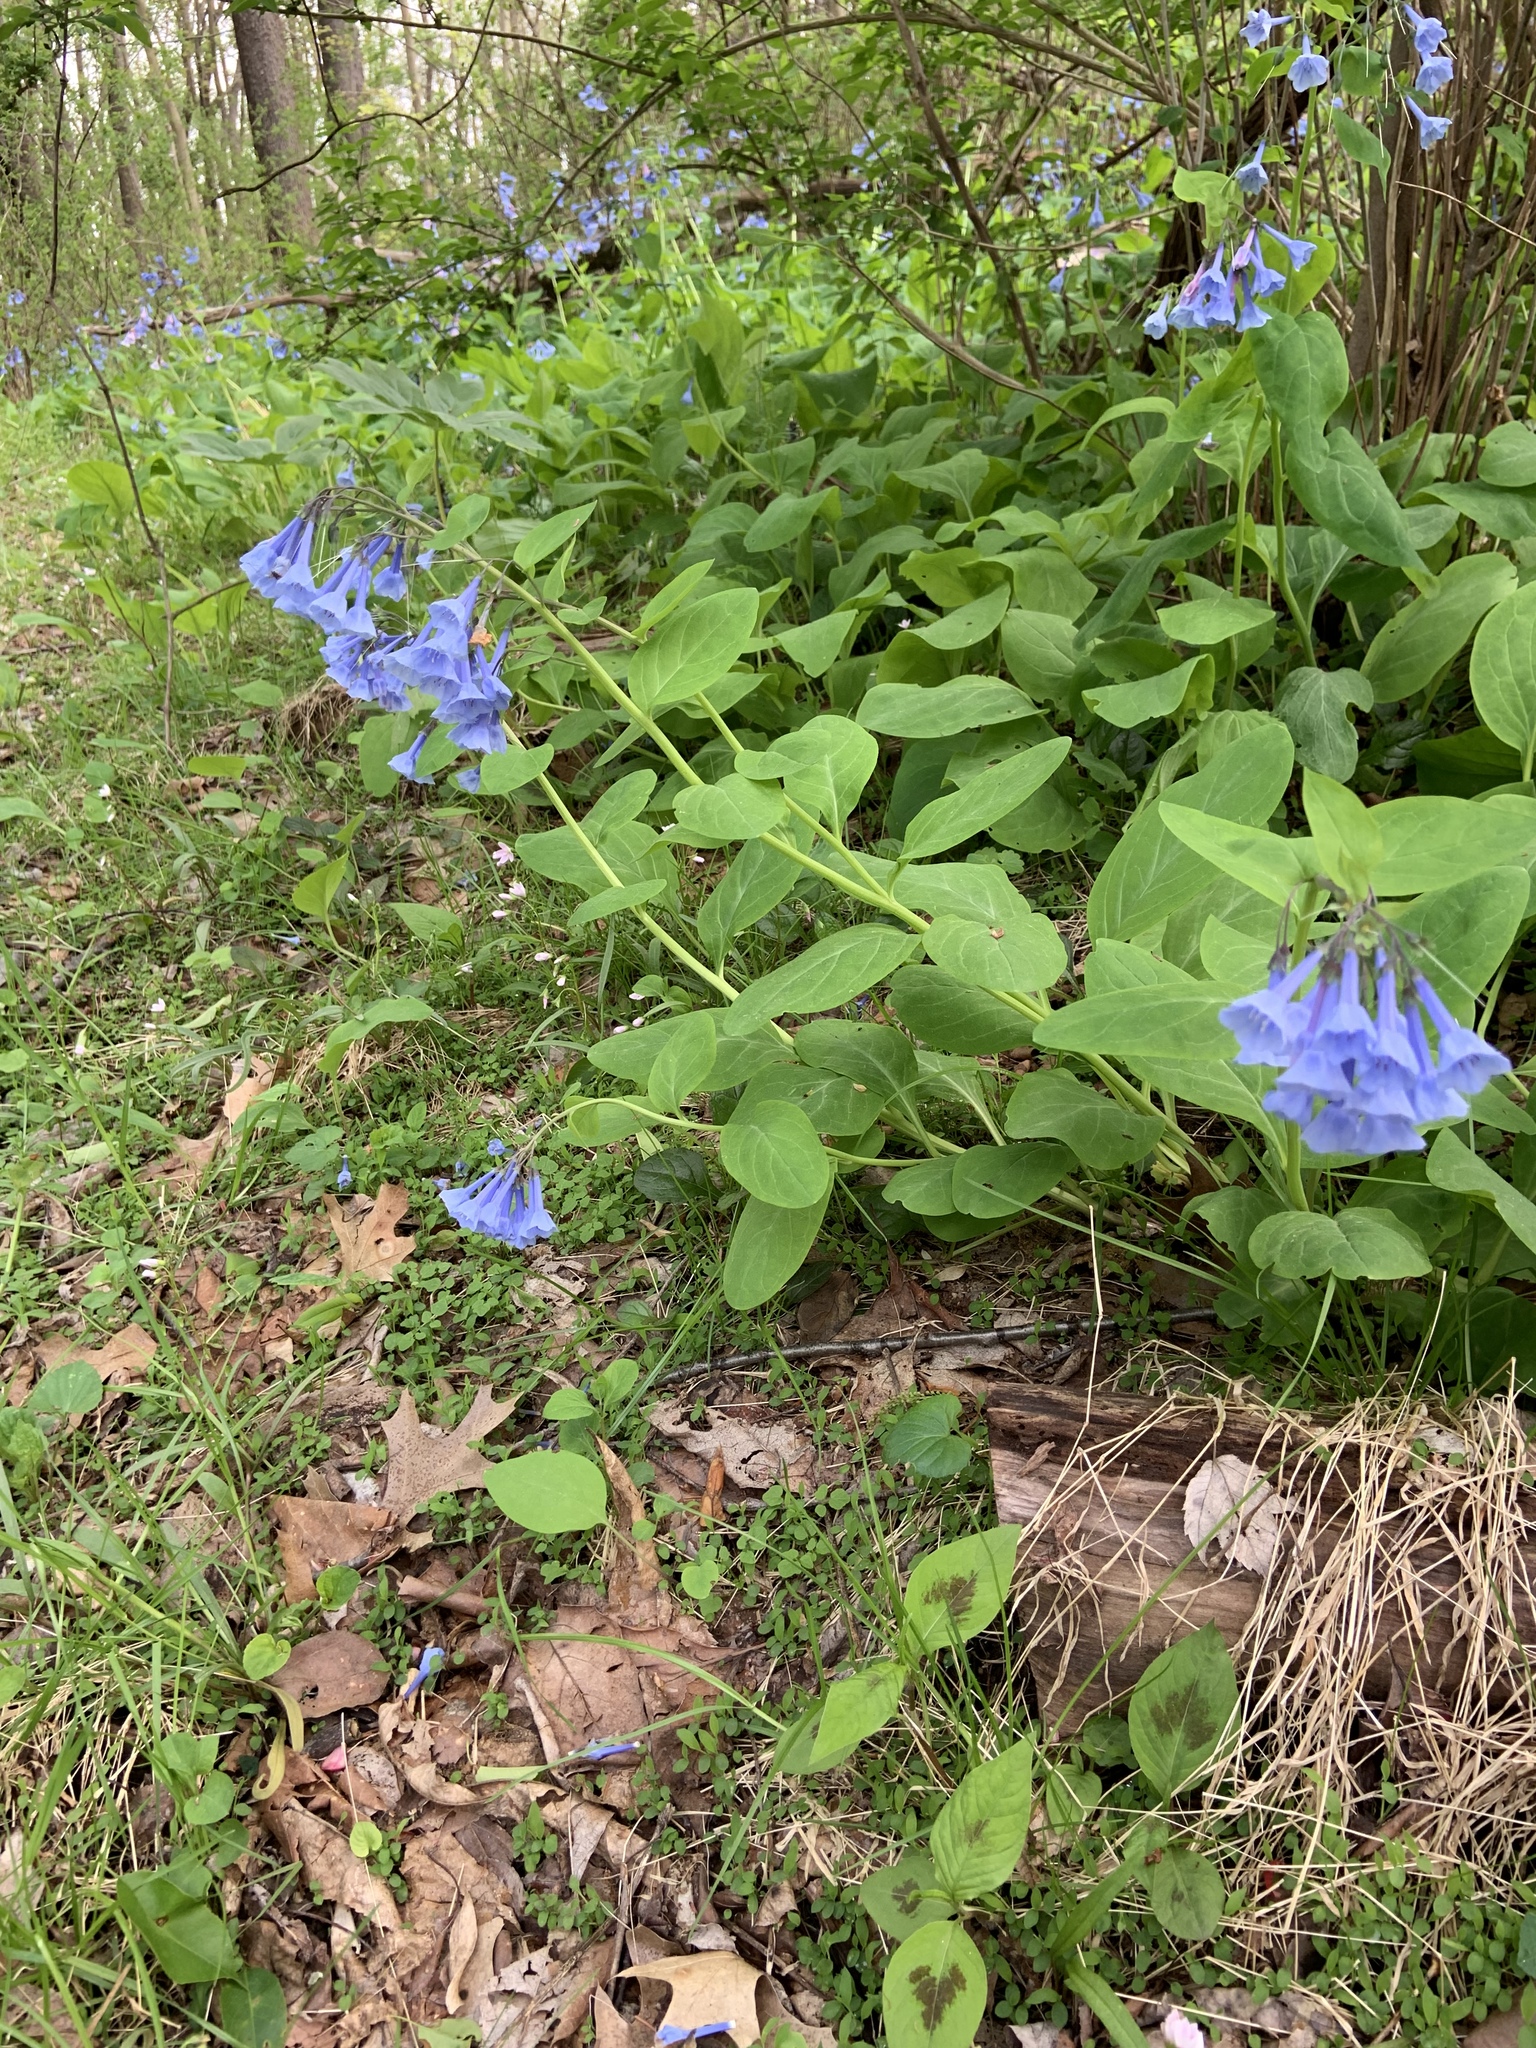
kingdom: Plantae
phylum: Tracheophyta
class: Magnoliopsida
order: Boraginales
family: Boraginaceae
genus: Mertensia
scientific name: Mertensia virginica
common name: Virginia bluebells
